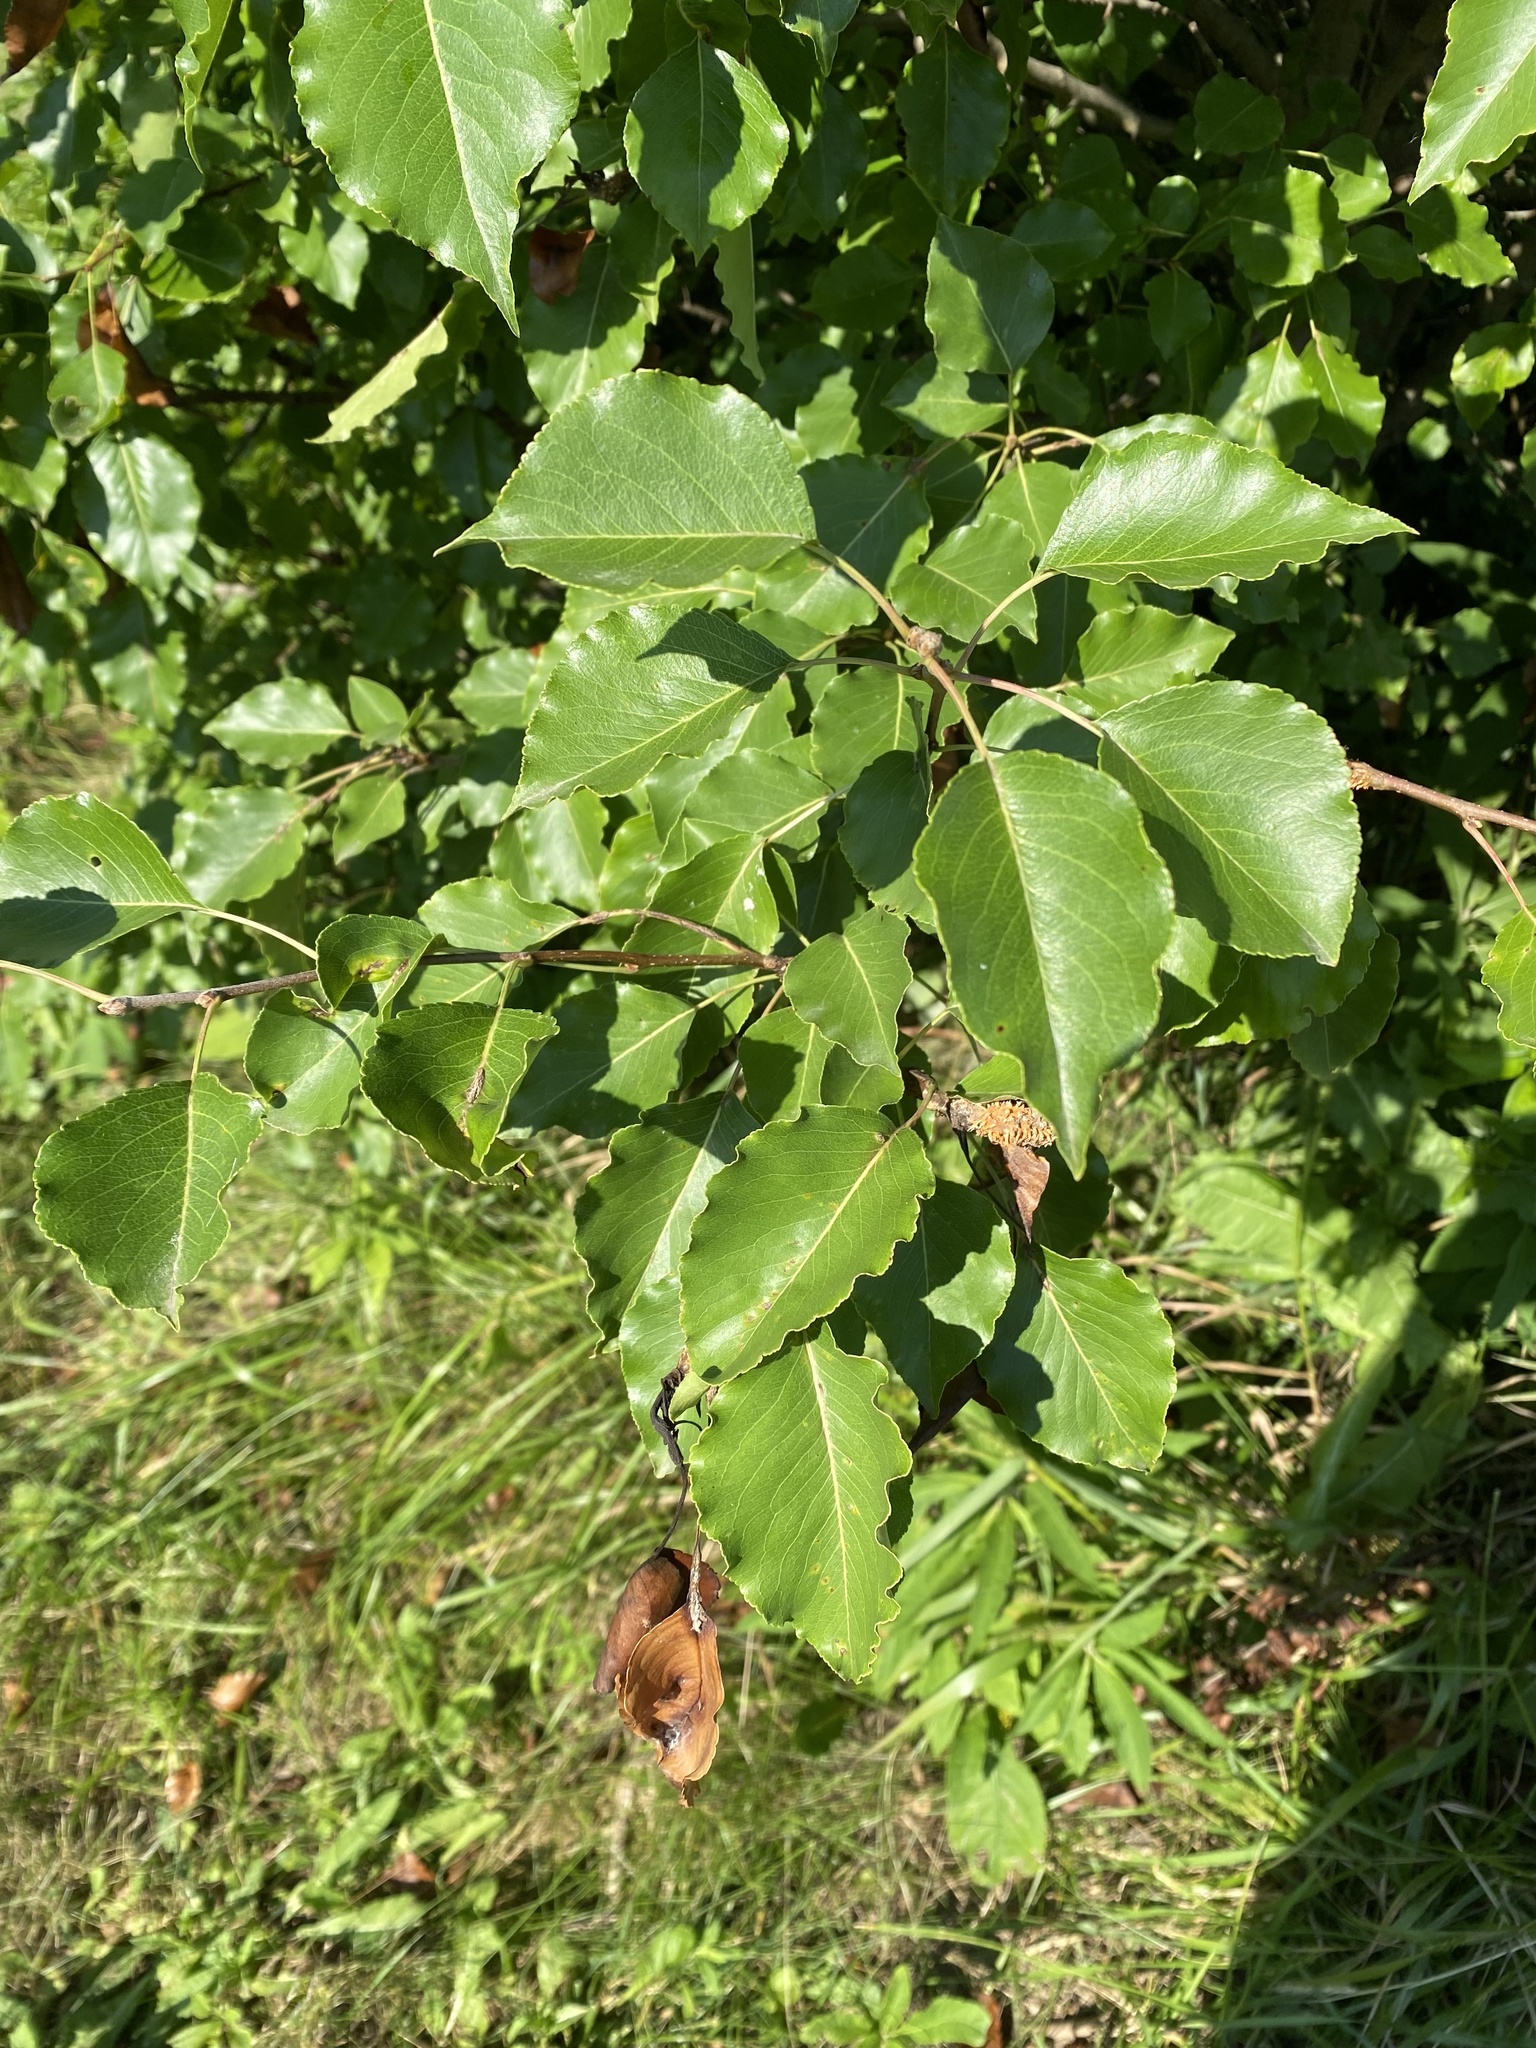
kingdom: Plantae
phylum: Tracheophyta
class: Magnoliopsida
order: Rosales
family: Rosaceae
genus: Pyrus
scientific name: Pyrus calleryana
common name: Callery pear
